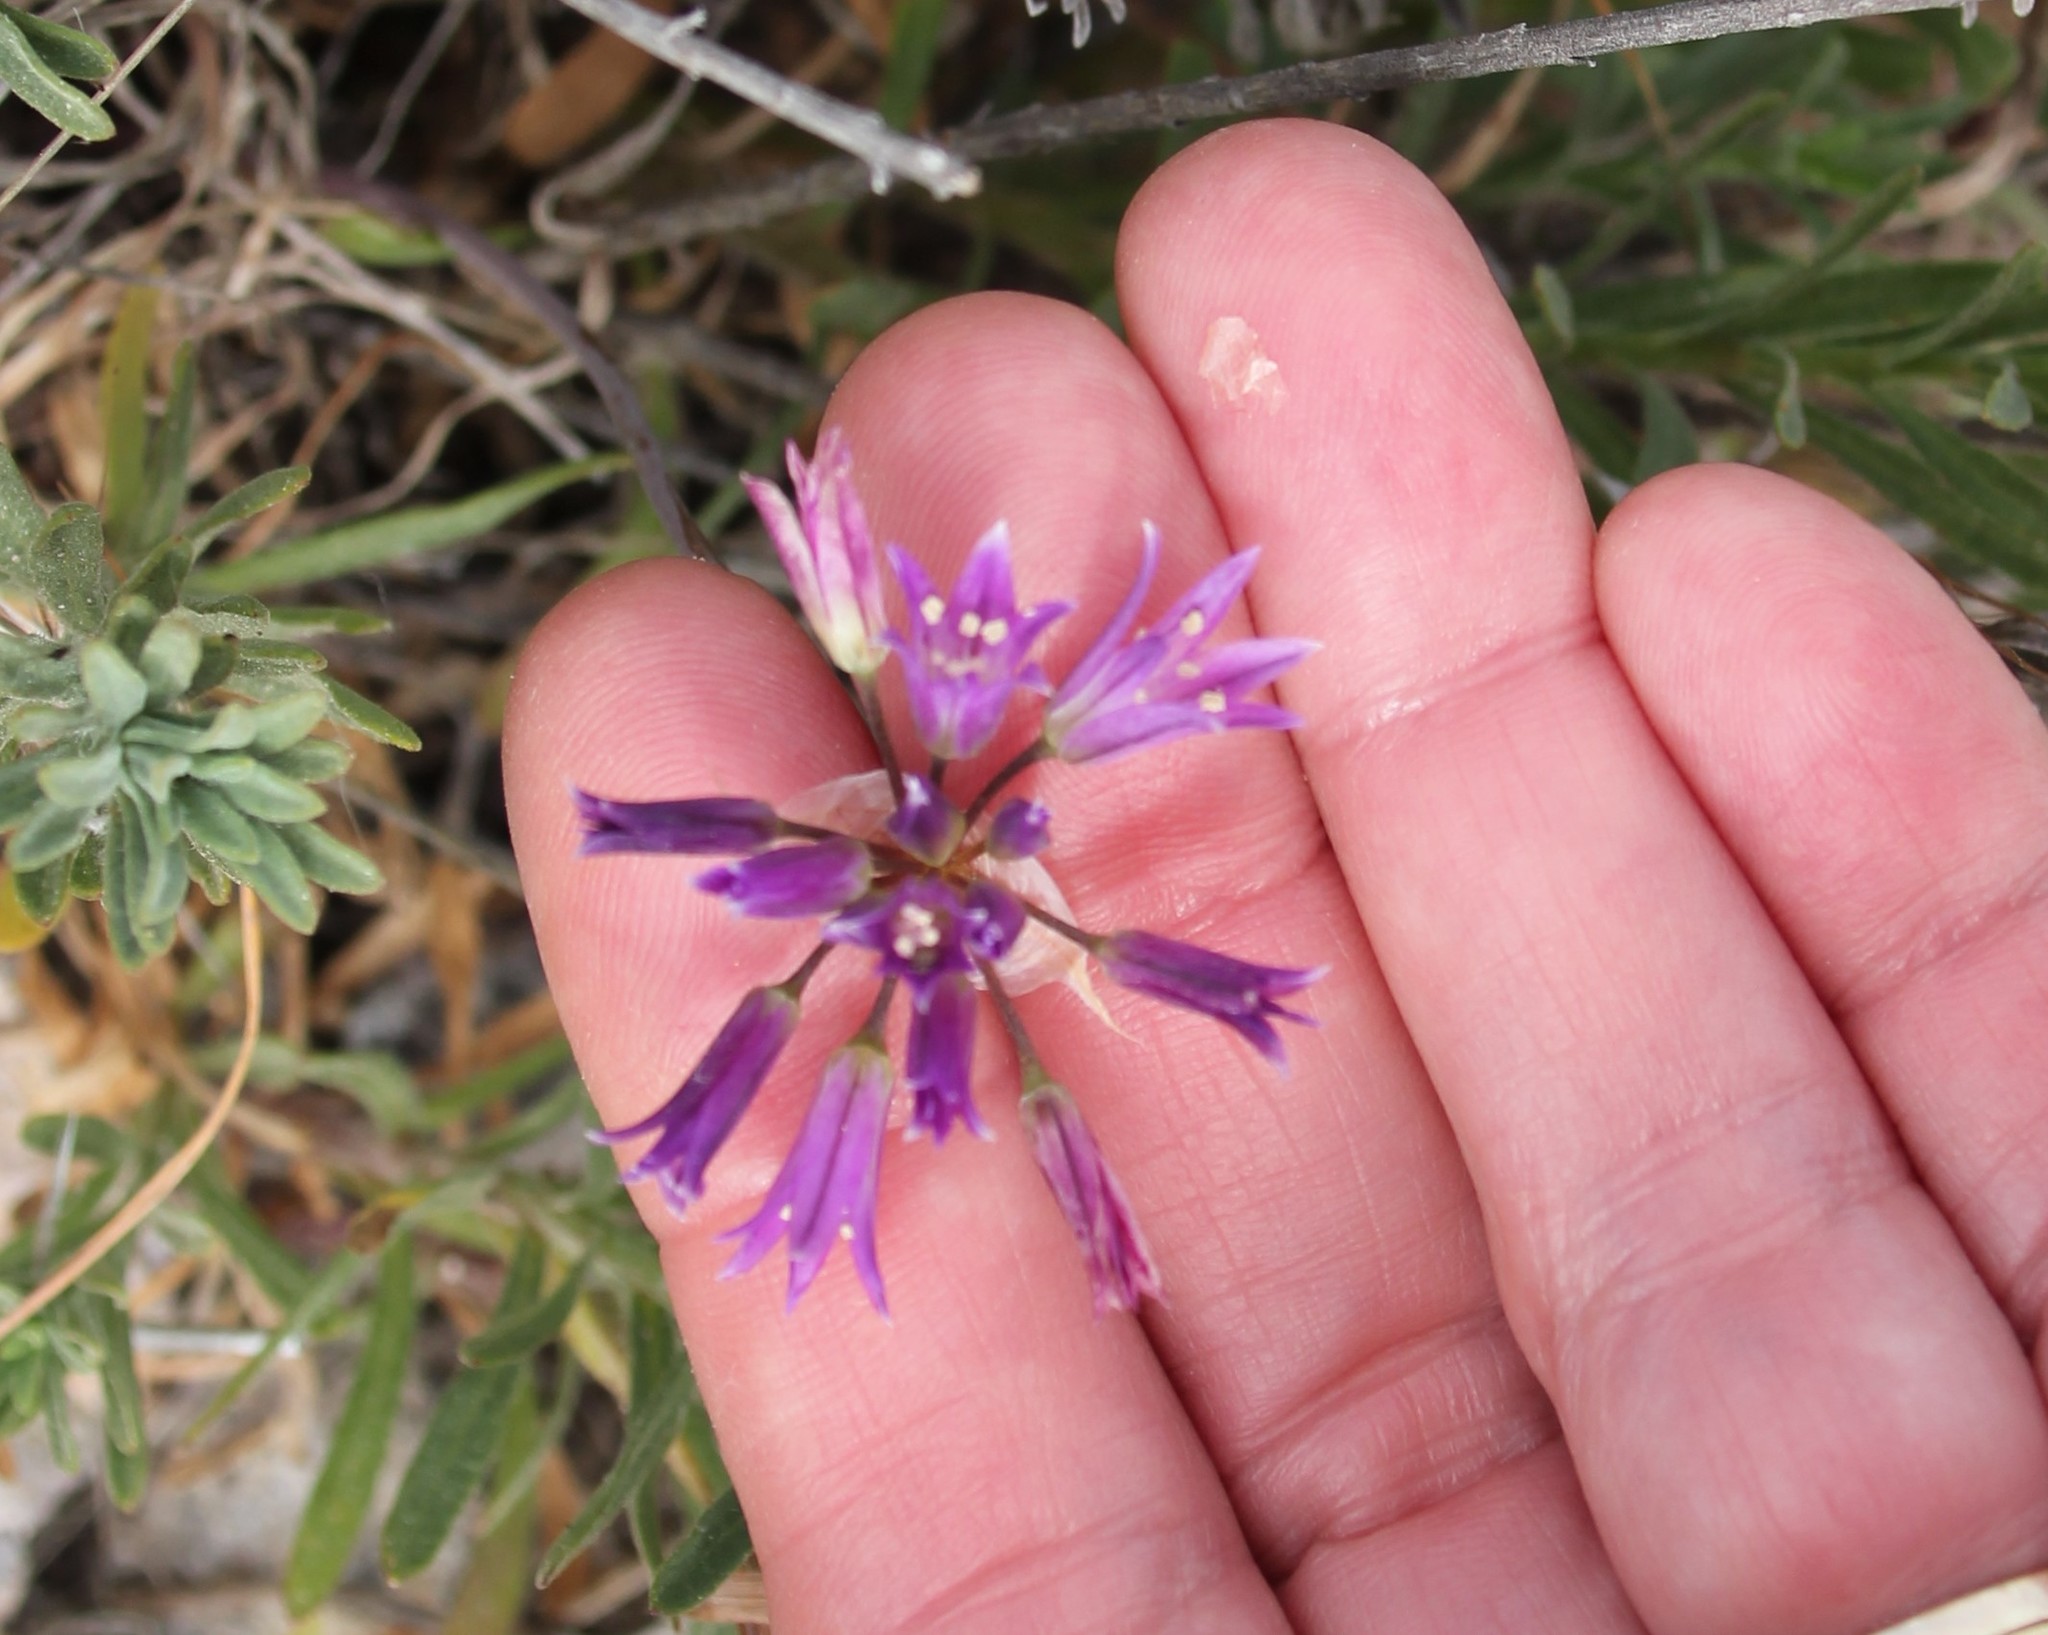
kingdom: Plantae
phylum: Tracheophyta
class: Liliopsida
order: Asparagales
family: Amaryllidaceae
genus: Allium
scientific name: Allium fimbriatum
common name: Fringed onion
